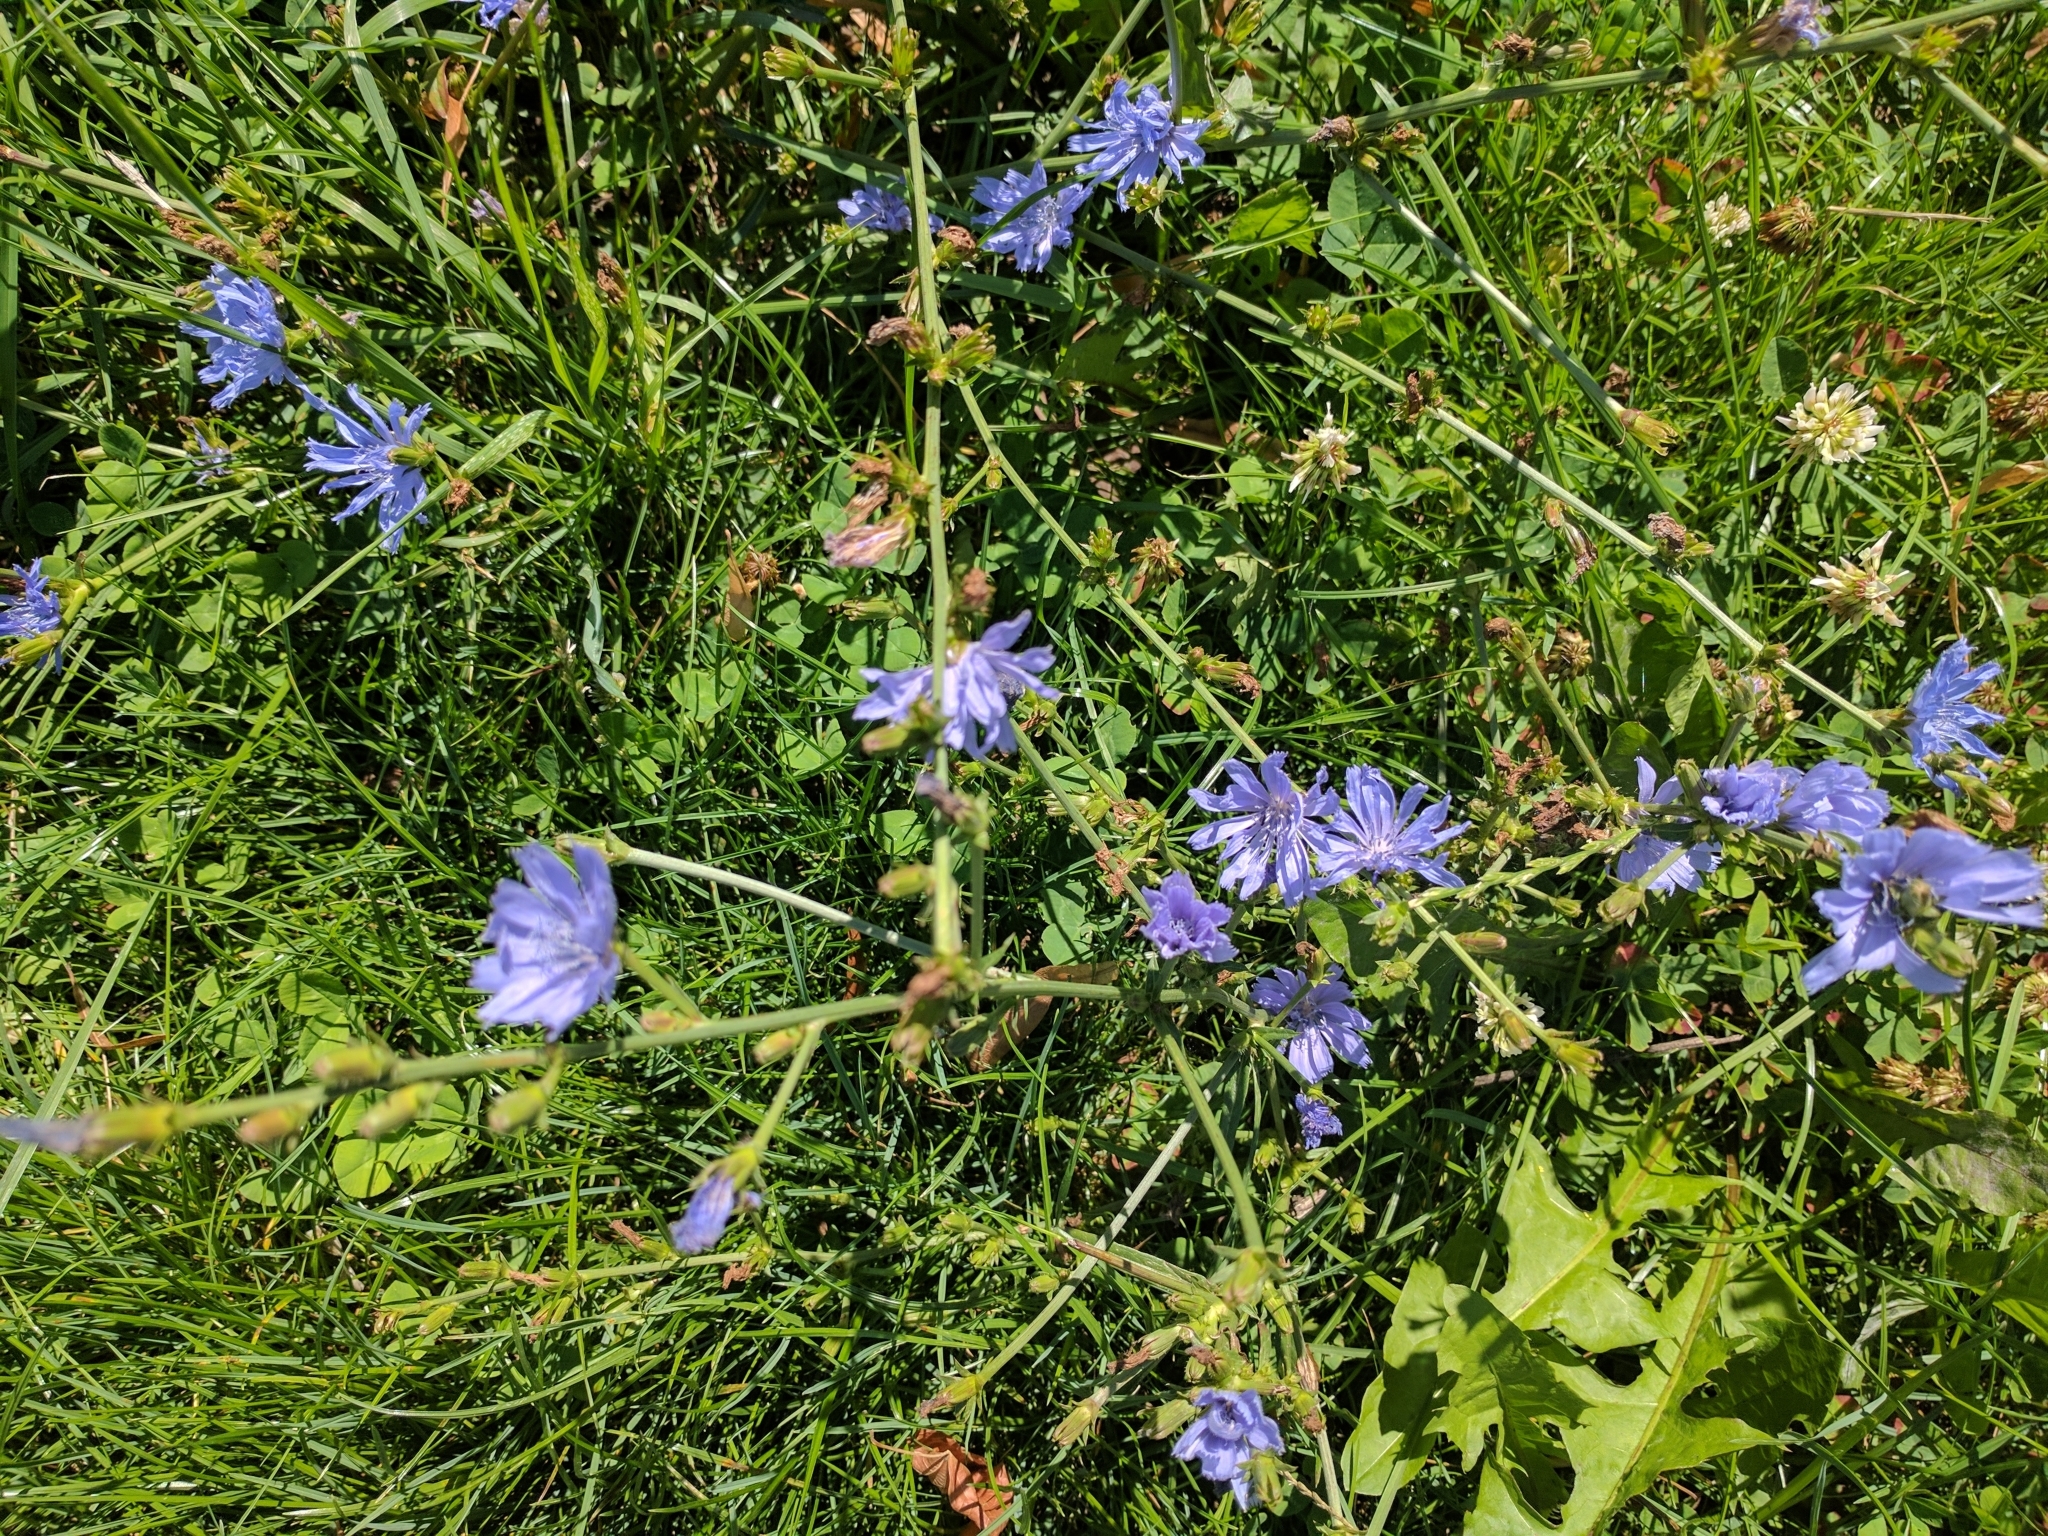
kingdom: Plantae
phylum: Tracheophyta
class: Magnoliopsida
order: Asterales
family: Asteraceae
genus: Cichorium
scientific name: Cichorium intybus
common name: Chicory
